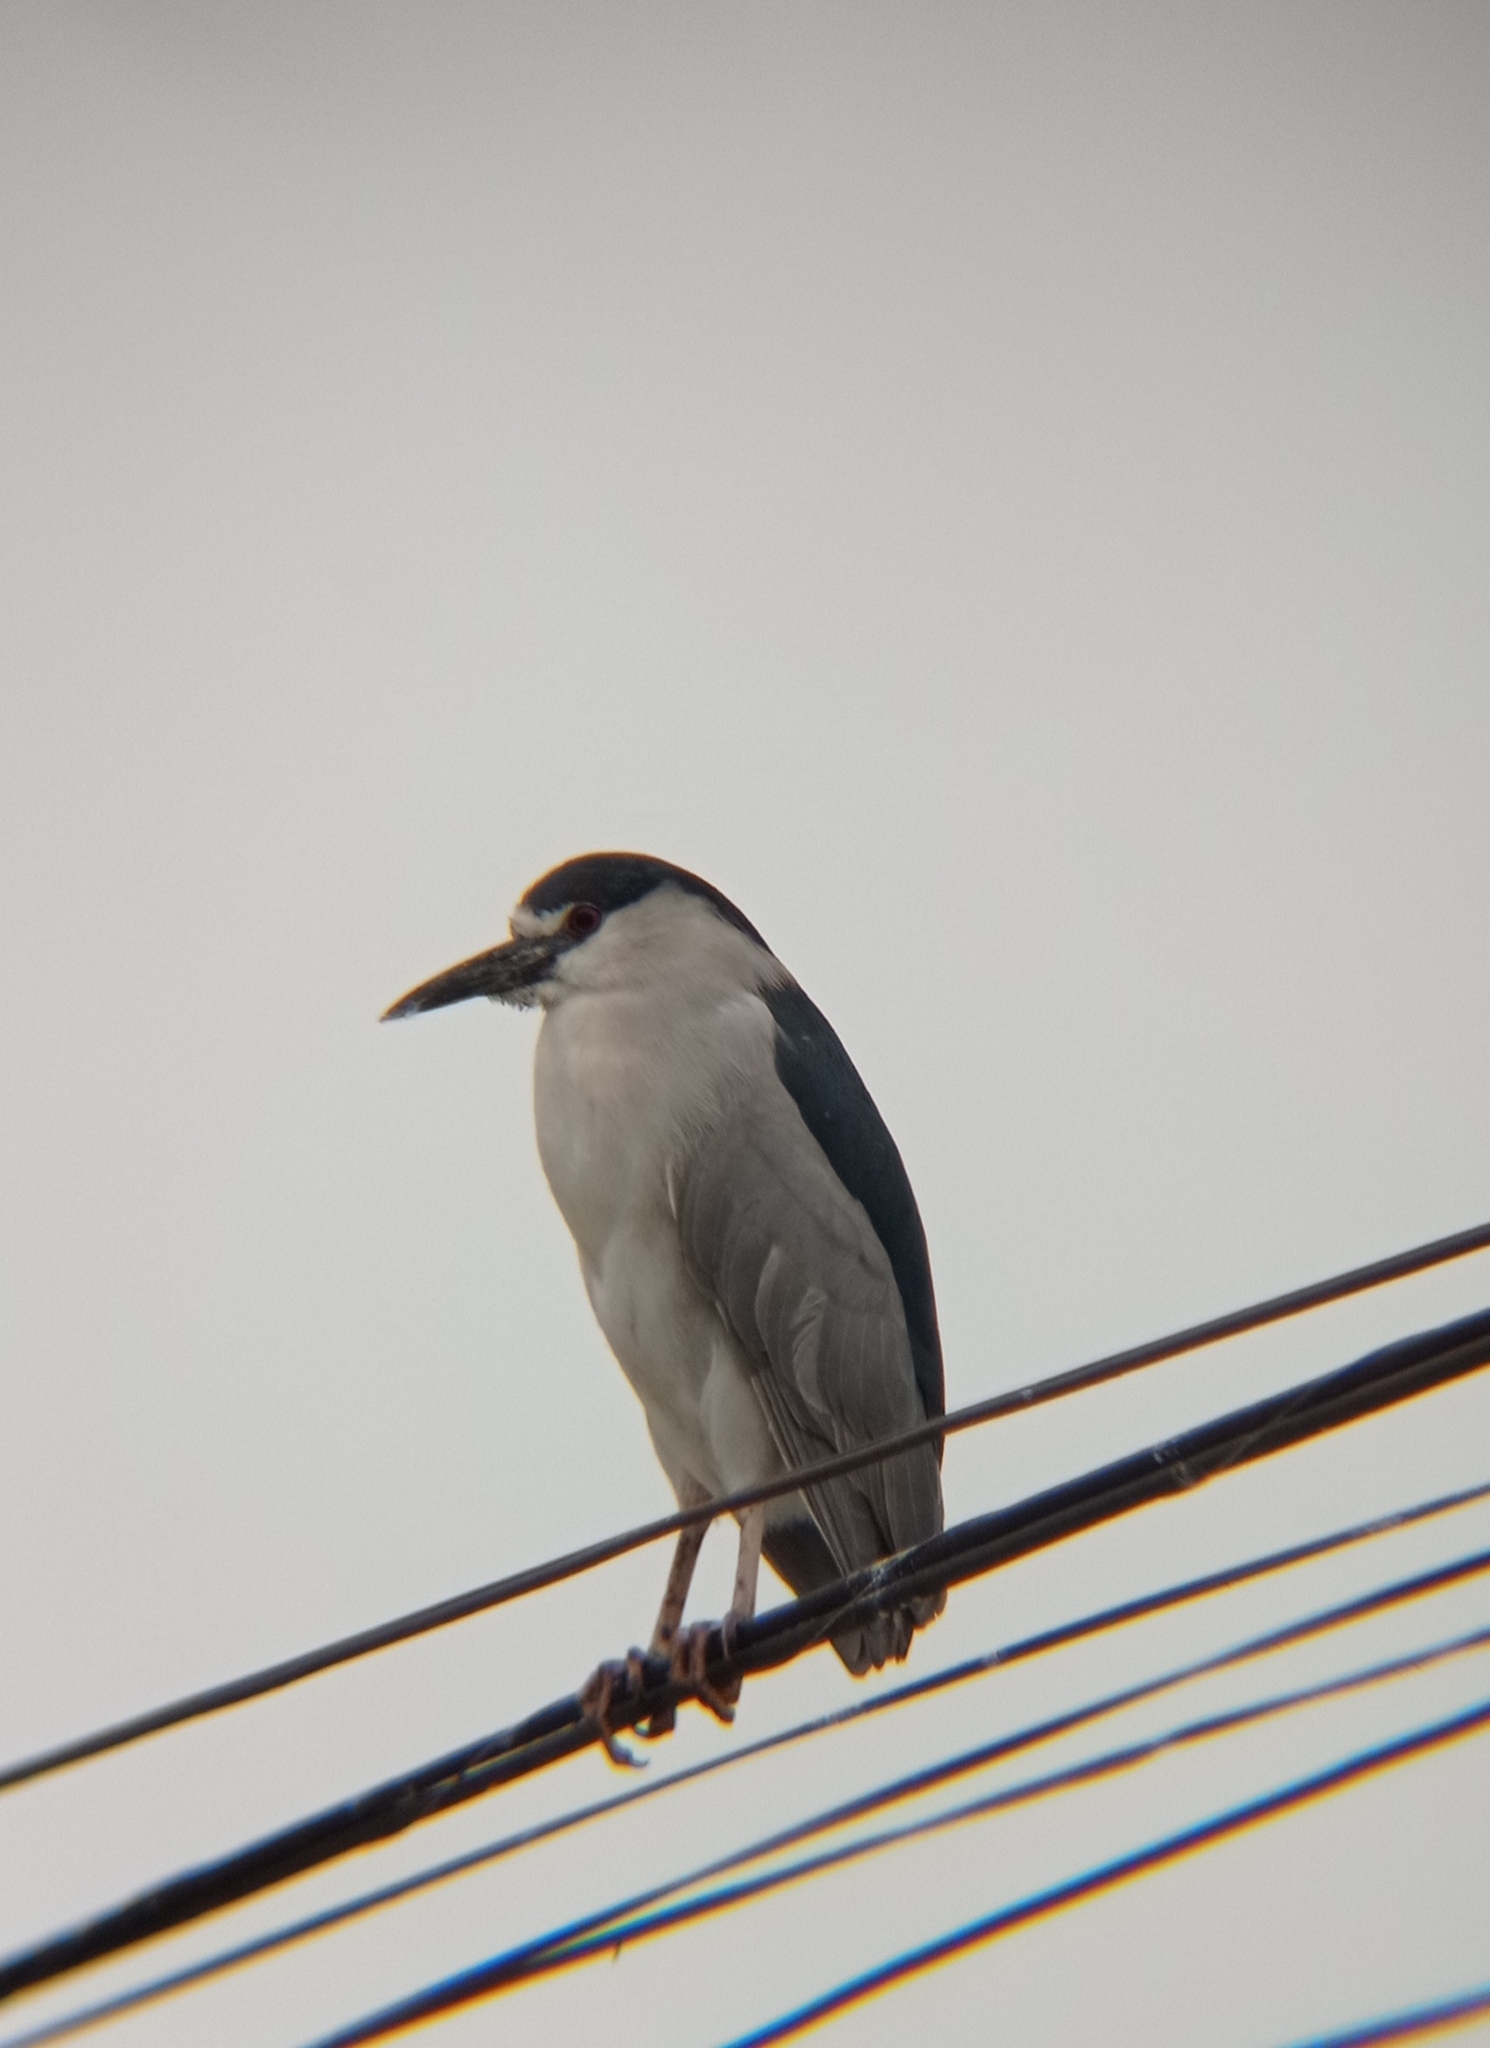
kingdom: Animalia
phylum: Chordata
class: Aves
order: Pelecaniformes
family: Ardeidae
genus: Nycticorax
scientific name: Nycticorax nycticorax
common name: Black-crowned night heron
